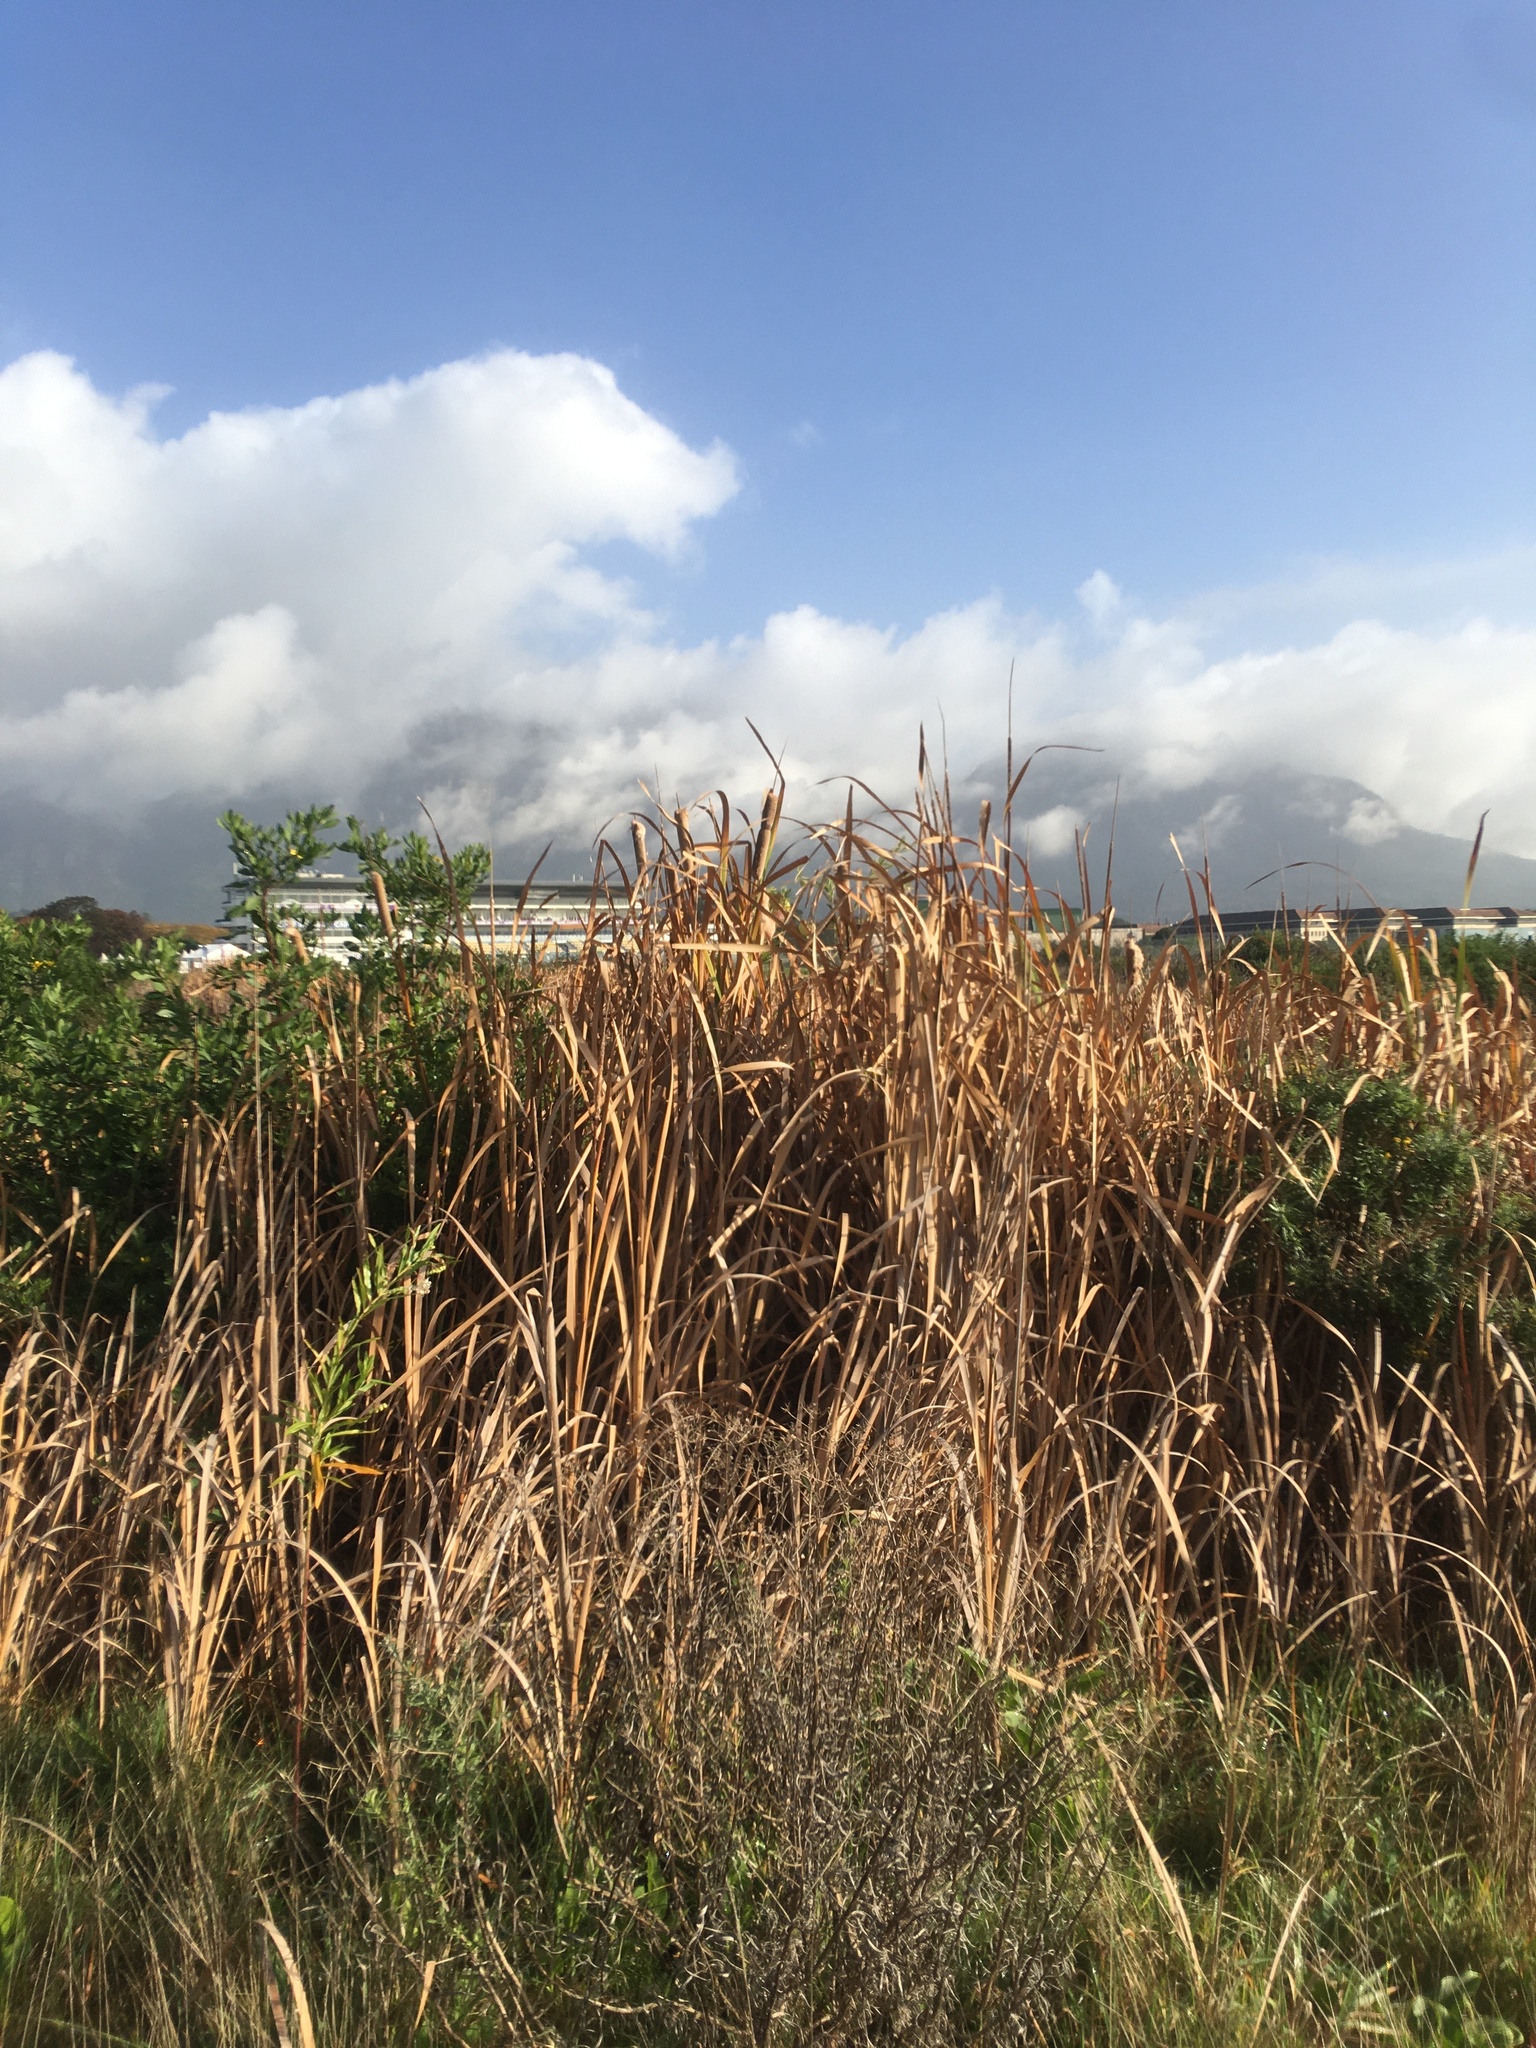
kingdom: Plantae
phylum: Tracheophyta
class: Liliopsida
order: Poales
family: Typhaceae
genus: Typha
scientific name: Typha capensis
